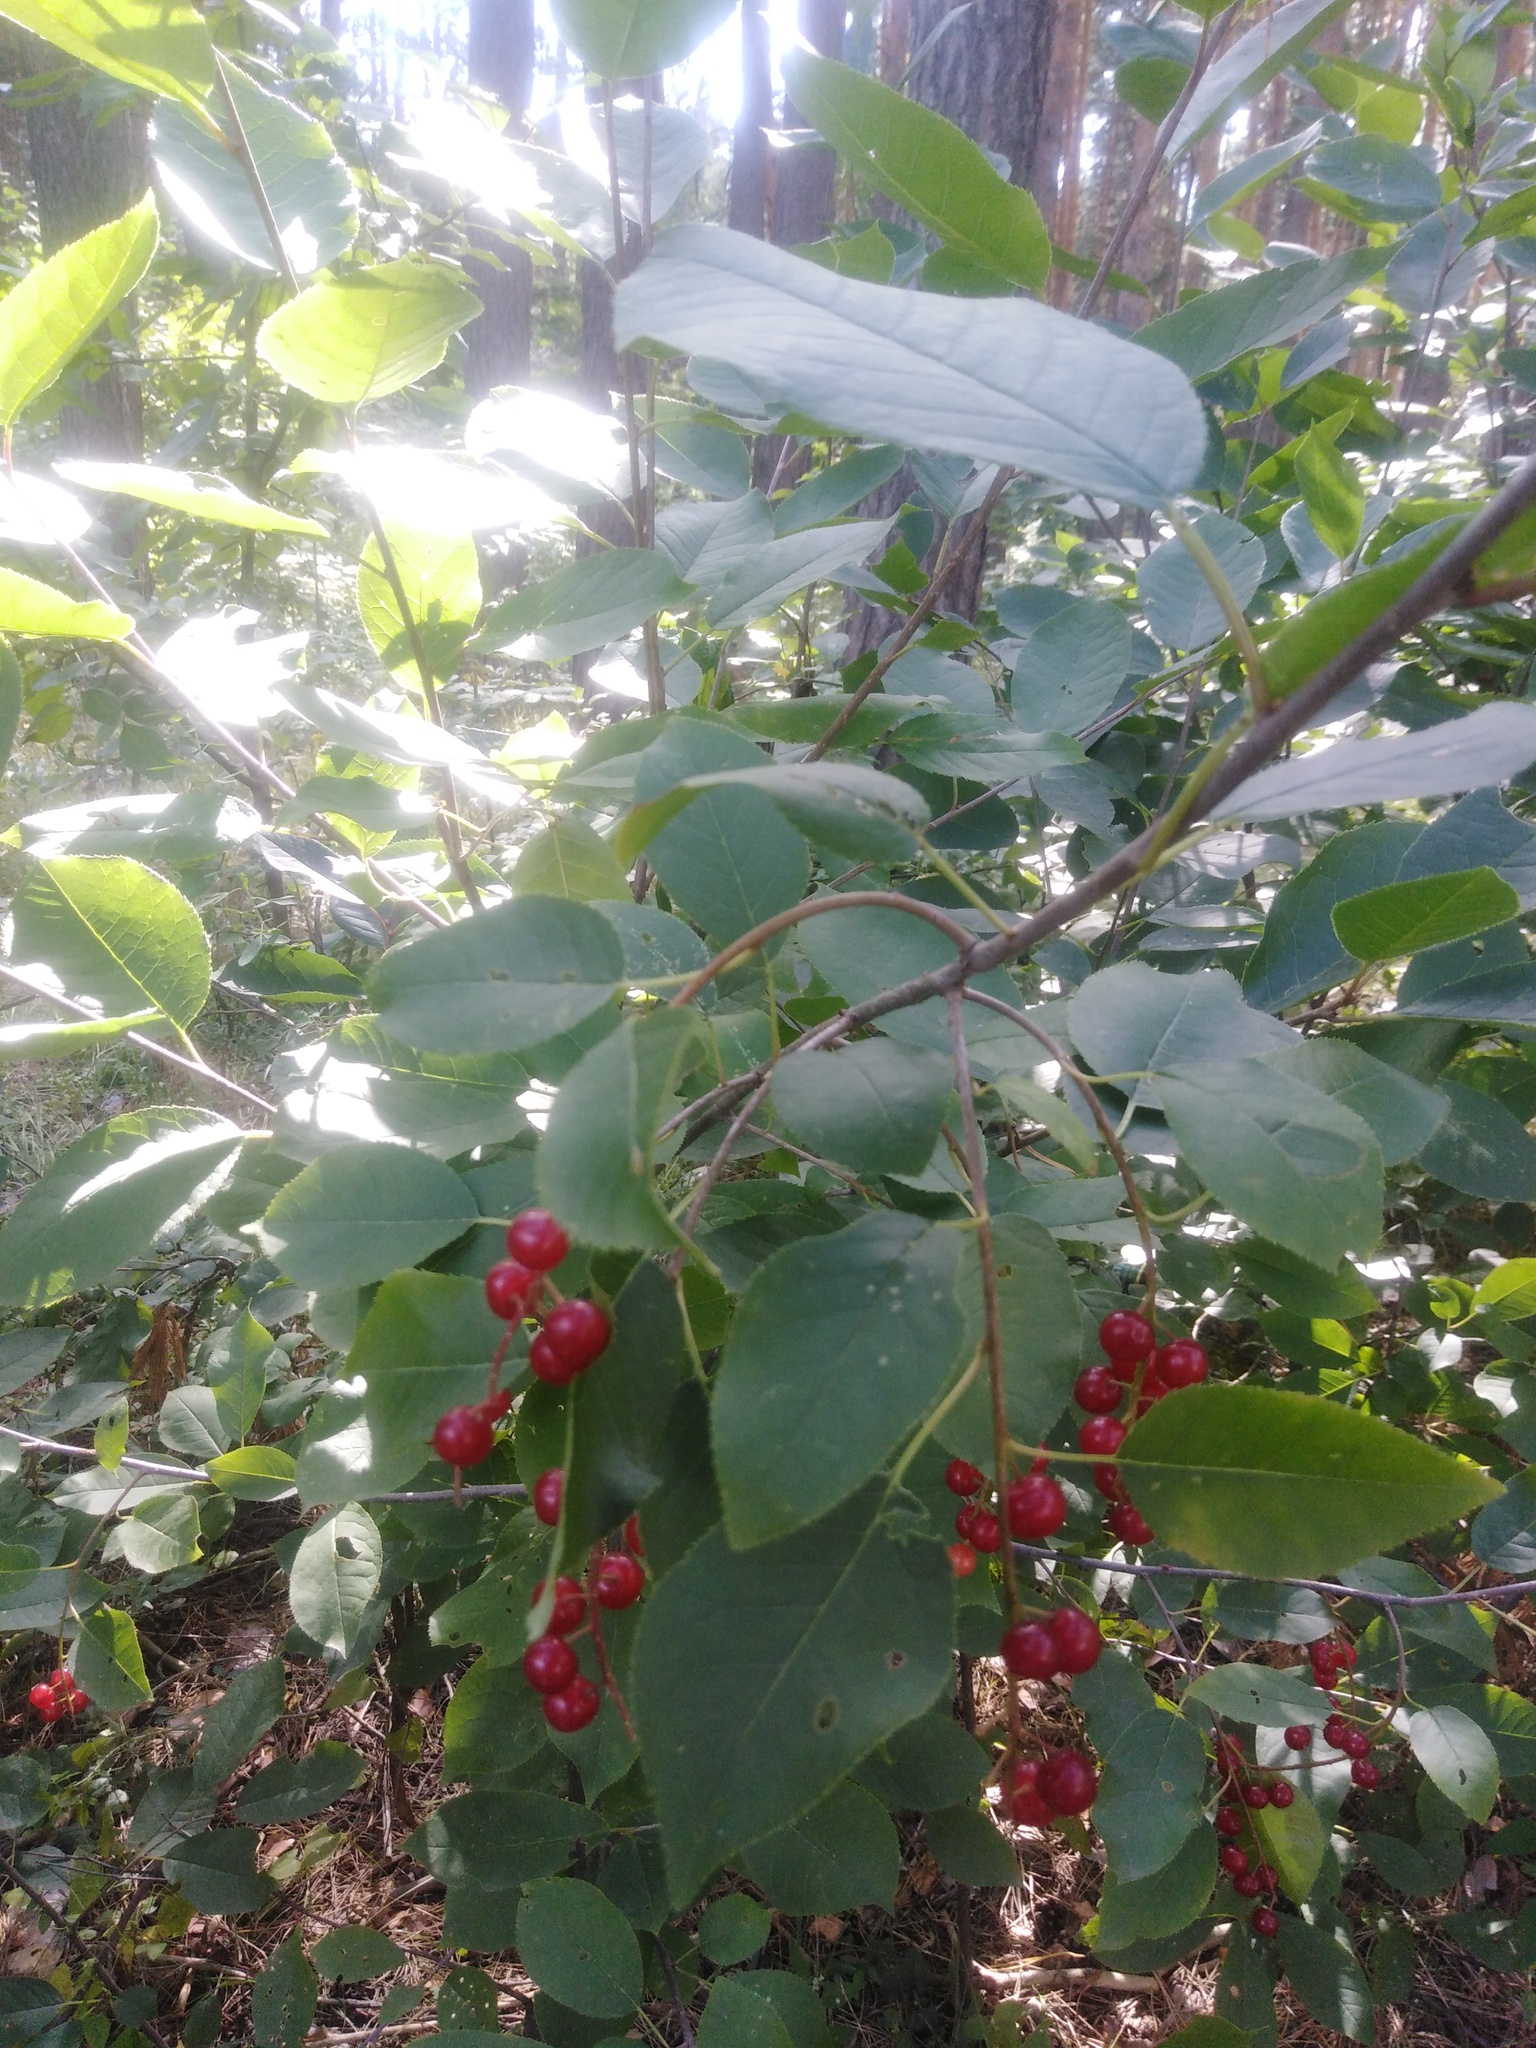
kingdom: Plantae
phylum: Tracheophyta
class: Magnoliopsida
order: Rosales
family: Rosaceae
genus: Prunus
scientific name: Prunus virginiana
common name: Chokecherry
